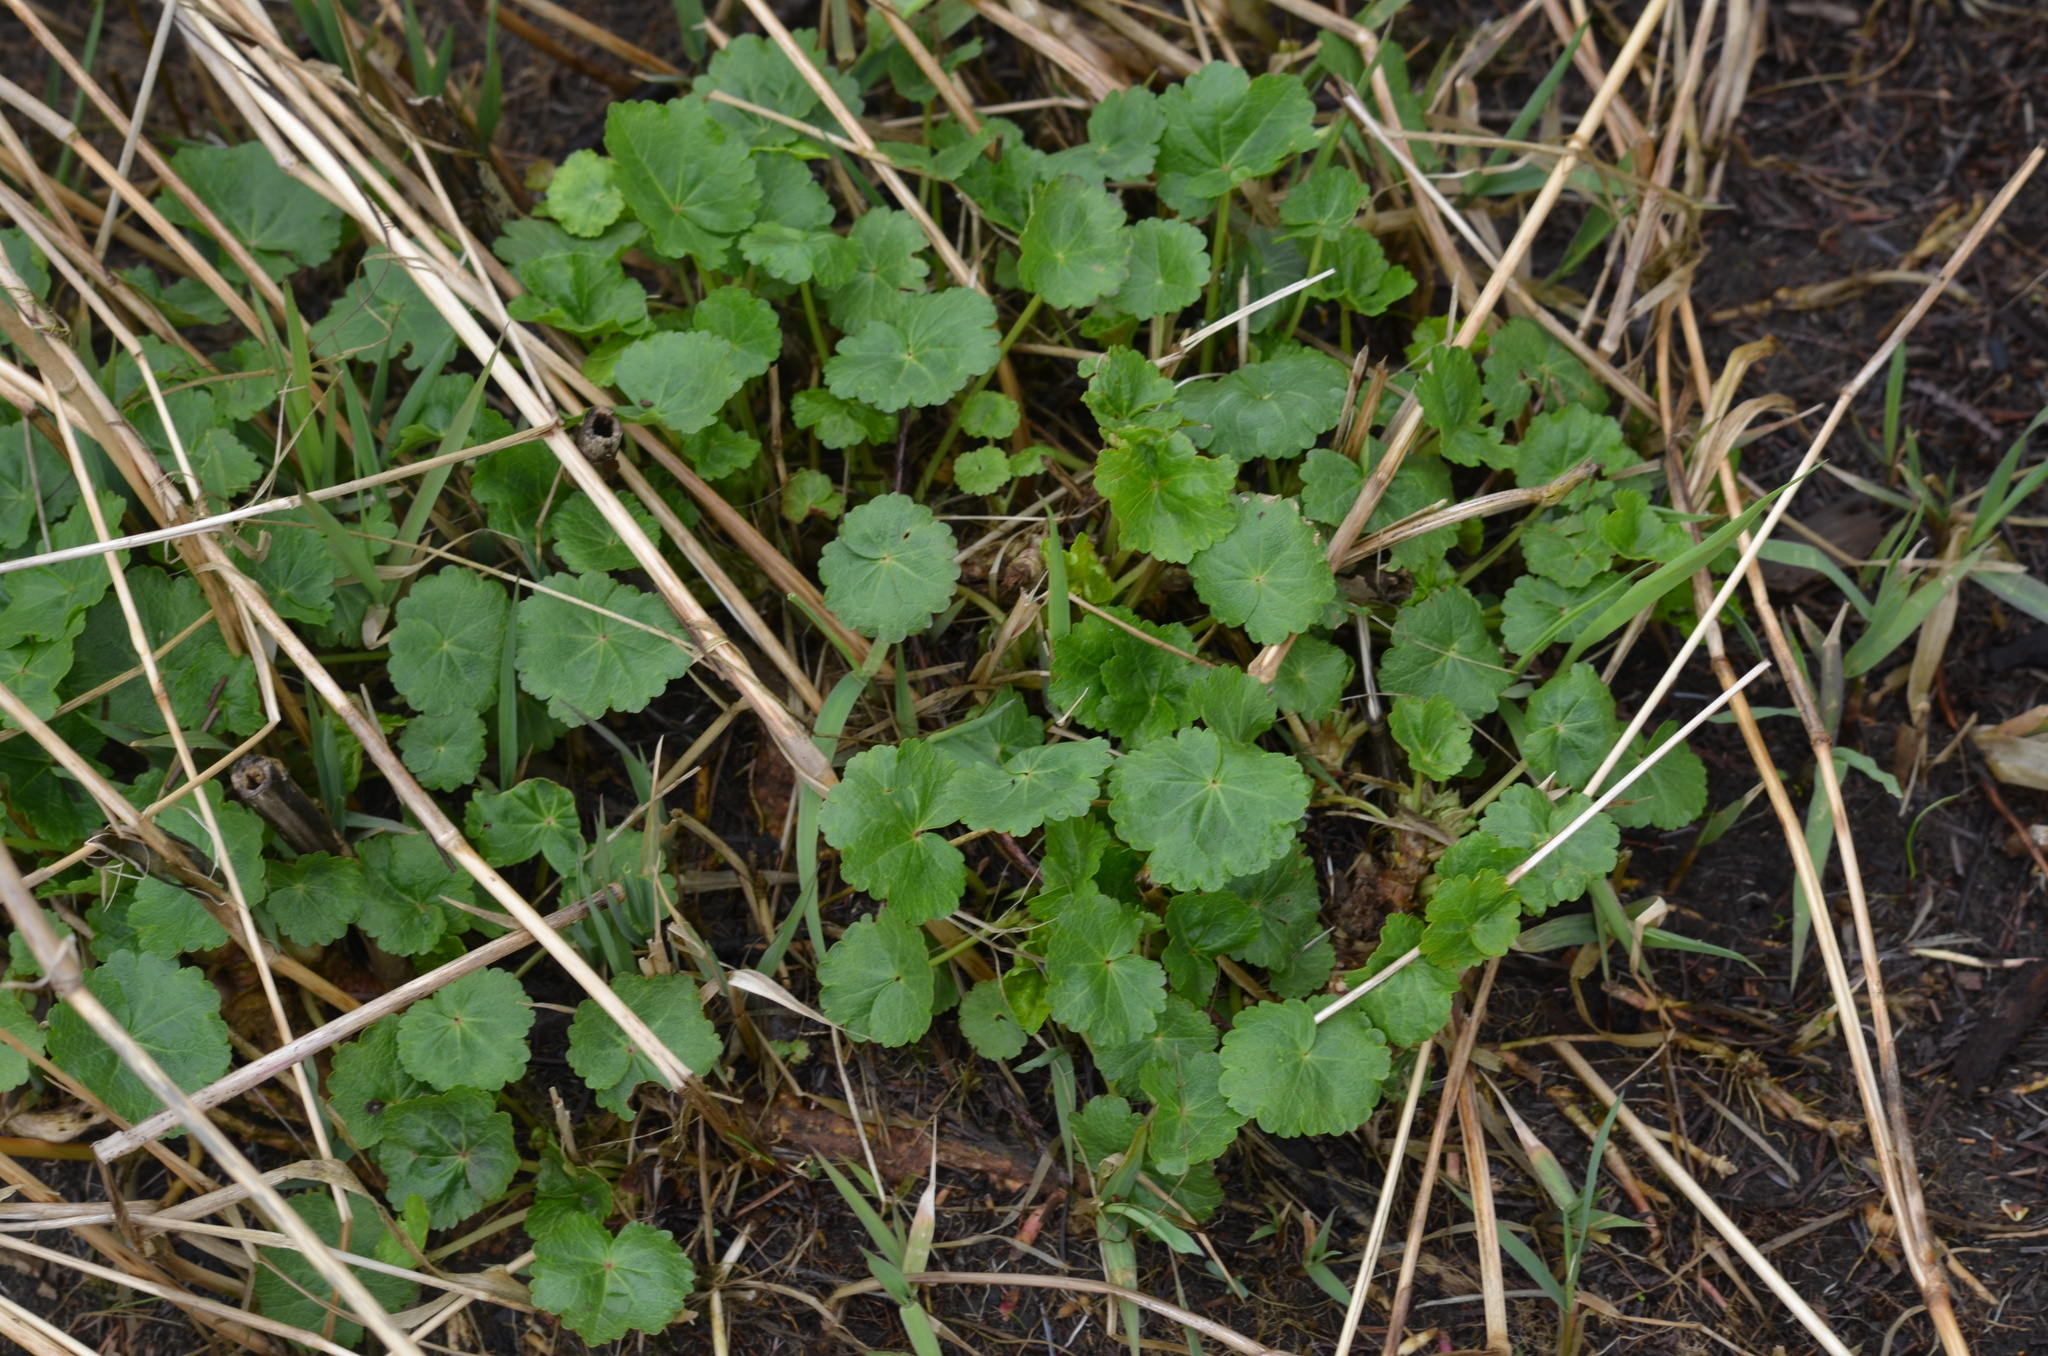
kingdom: Plantae
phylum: Tracheophyta
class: Magnoliopsida
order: Malvales
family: Malvaceae
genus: Sidalcea
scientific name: Sidalcea hendersonii
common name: Mallow
